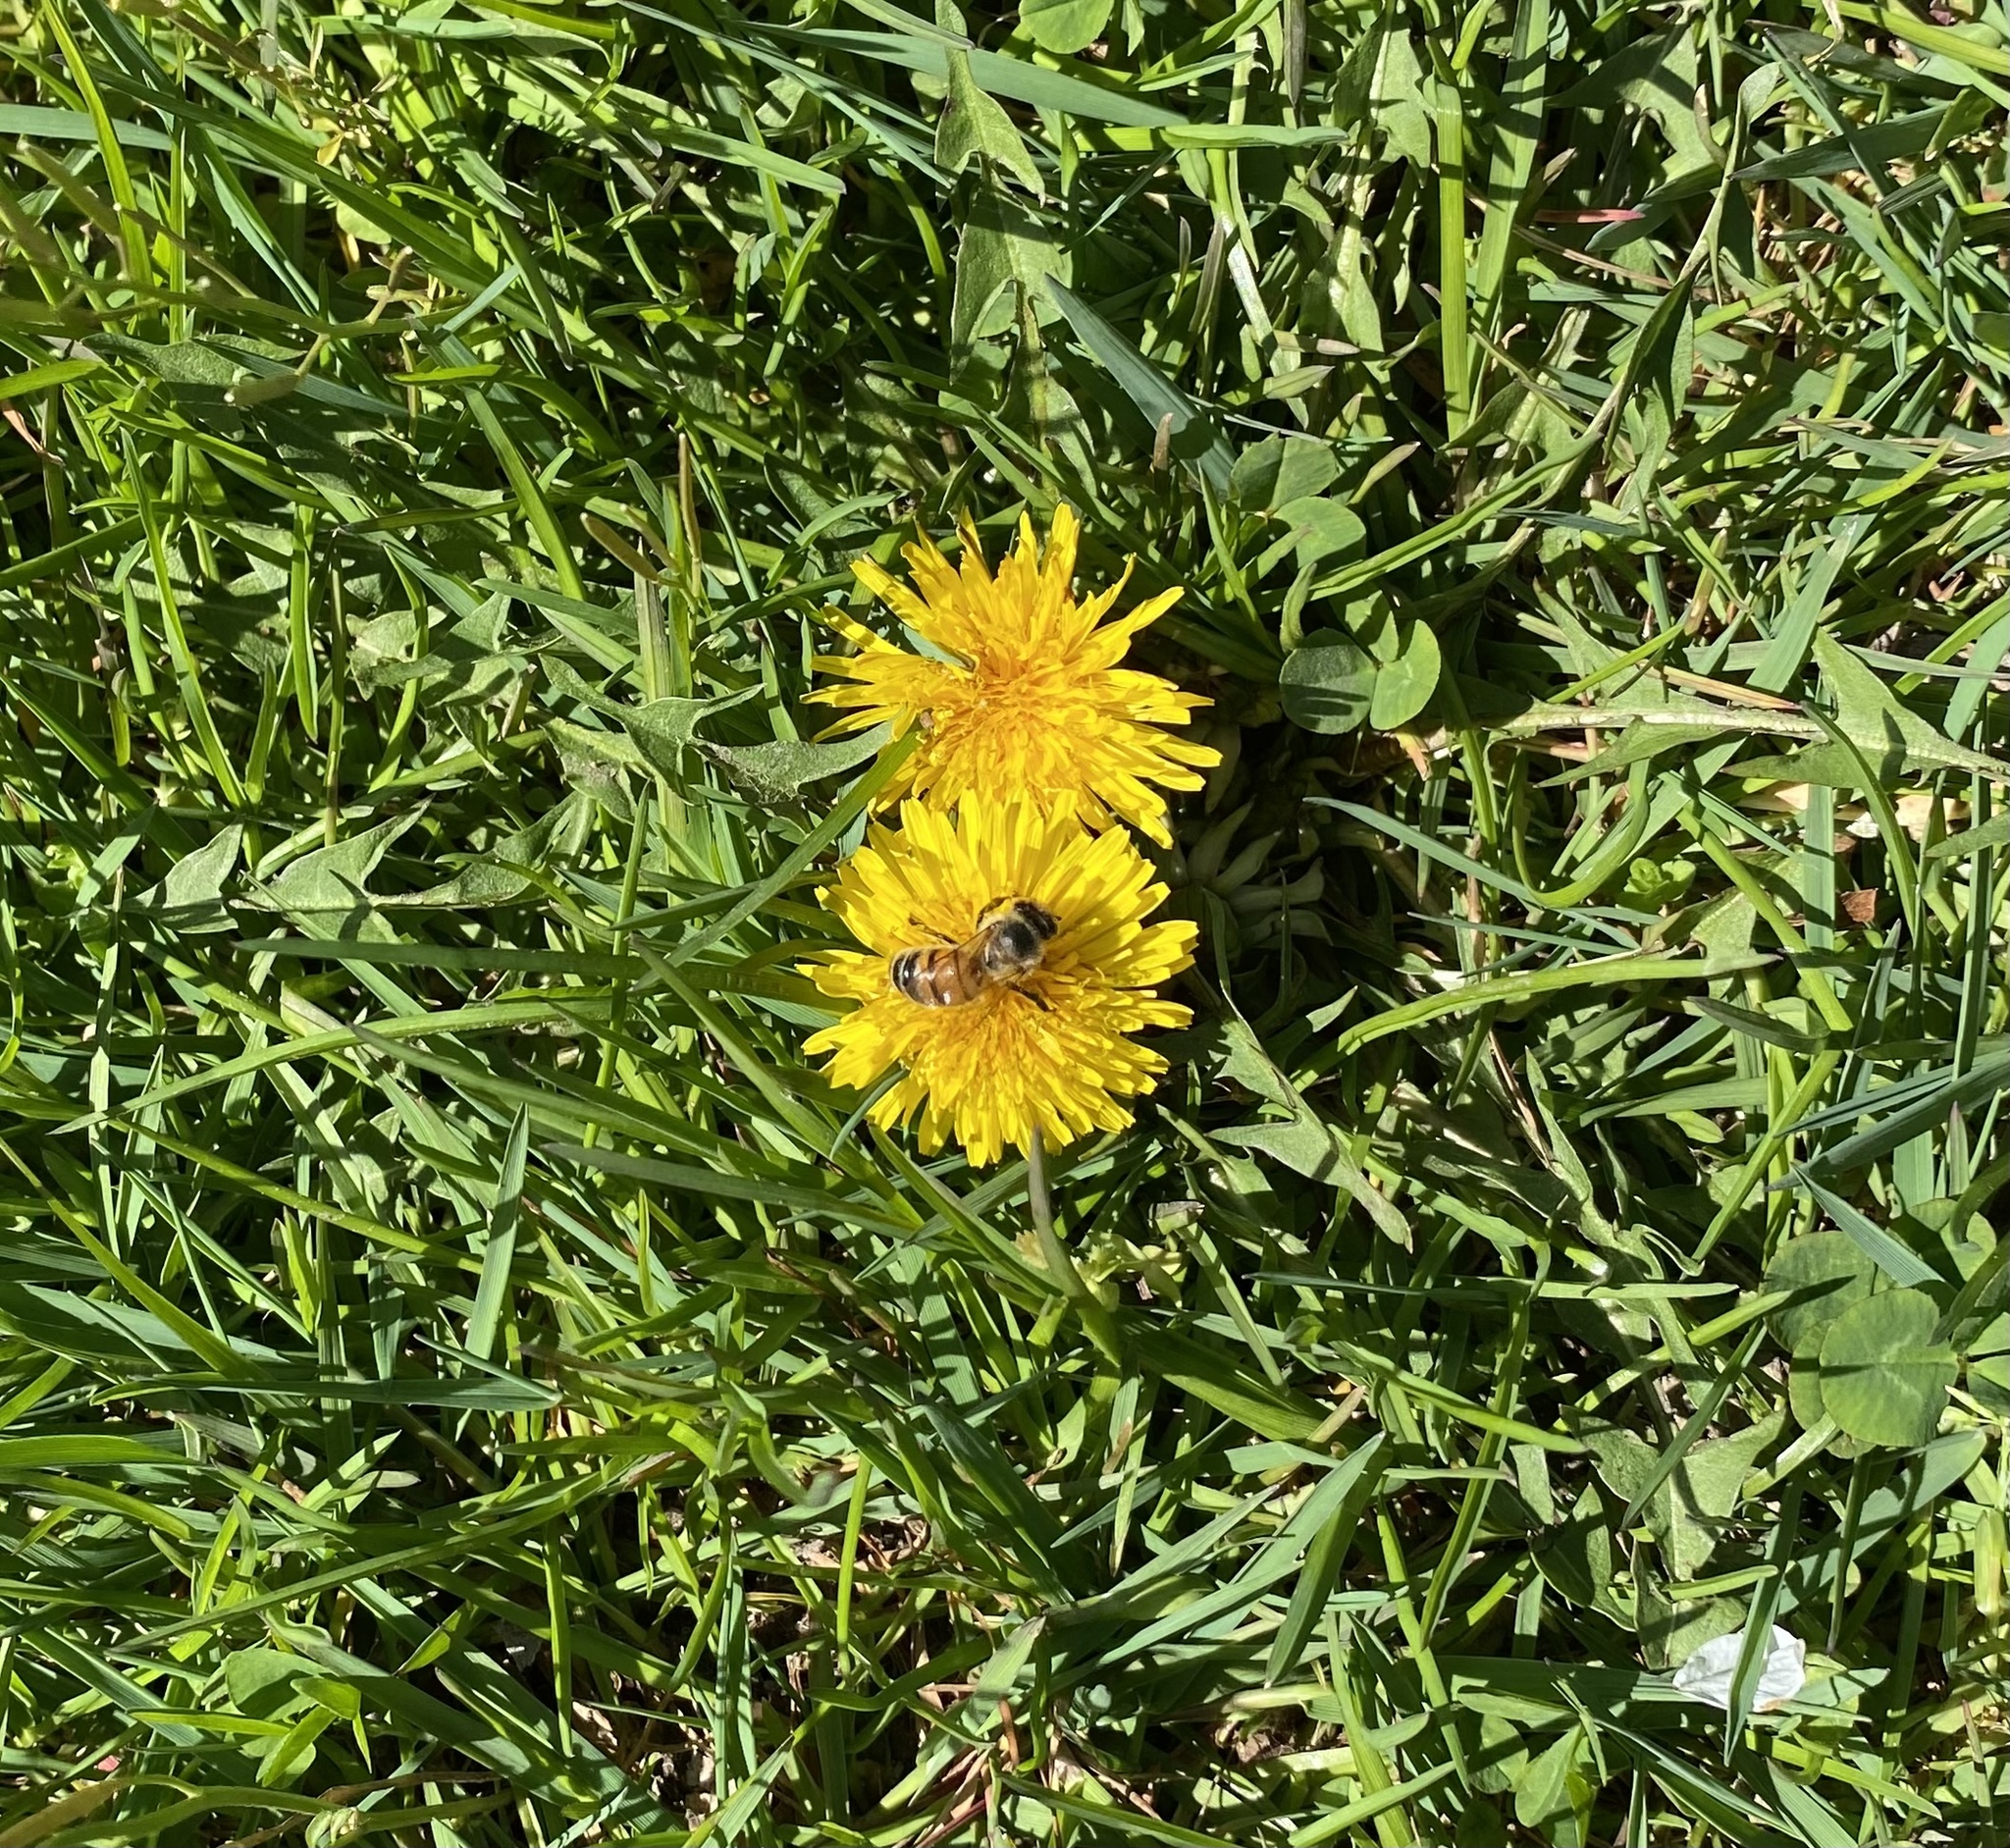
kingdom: Animalia
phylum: Arthropoda
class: Insecta
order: Hymenoptera
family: Apidae
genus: Apis
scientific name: Apis mellifera
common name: Honey bee
